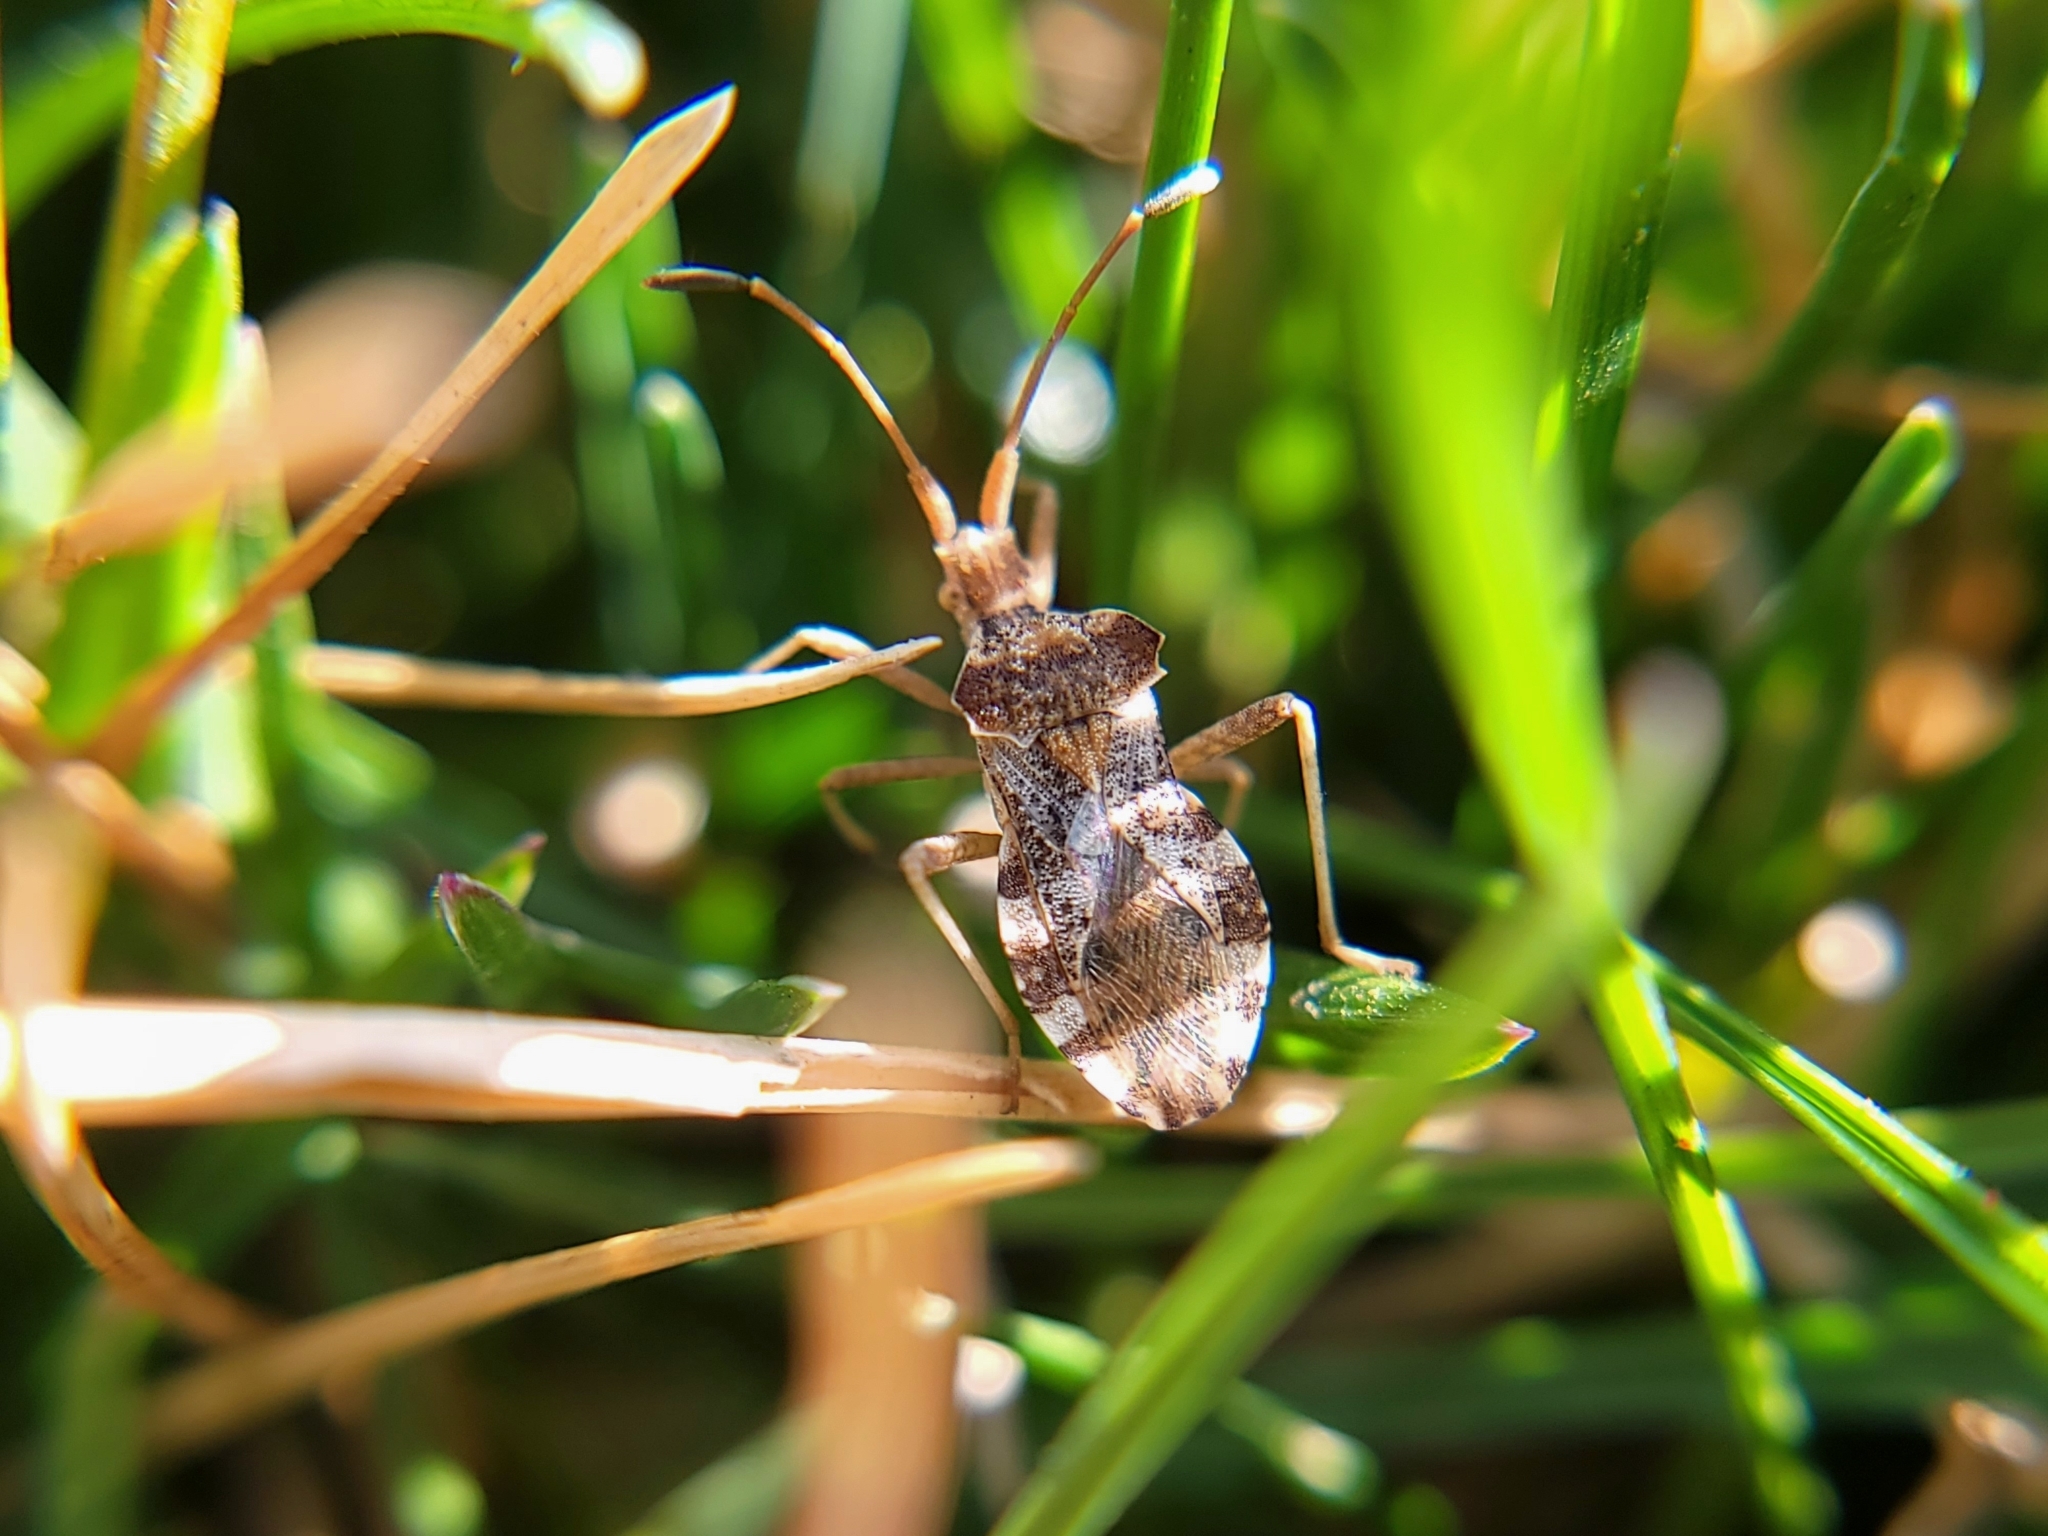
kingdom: Animalia
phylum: Arthropoda
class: Insecta
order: Hemiptera
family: Coreidae
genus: Centrocoris
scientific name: Centrocoris volxemi
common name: Leaf-footed bug
